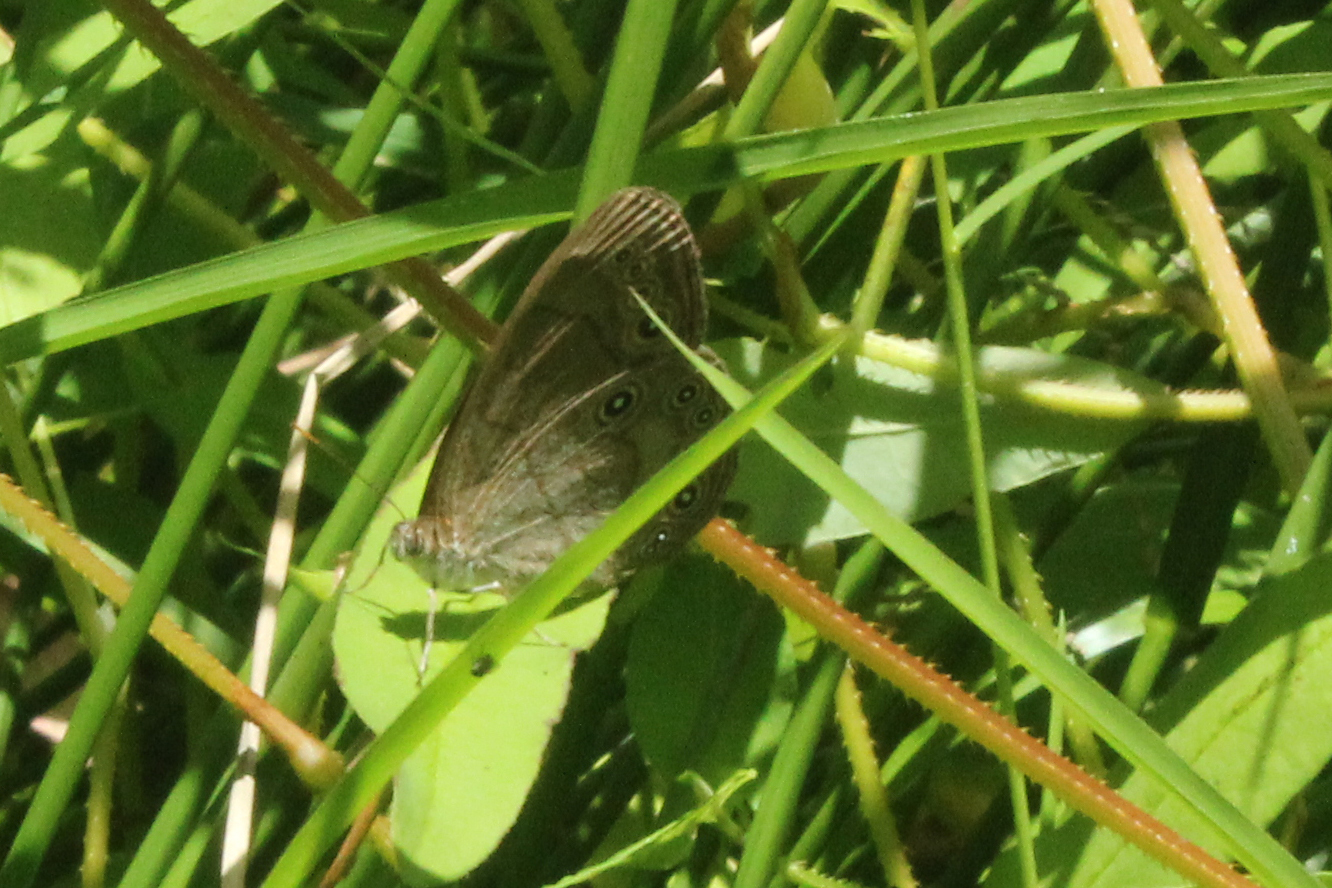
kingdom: Animalia
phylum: Arthropoda
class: Insecta
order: Lepidoptera
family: Nymphalidae
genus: Lethe
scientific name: Lethe eurydice
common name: Eyed brown
